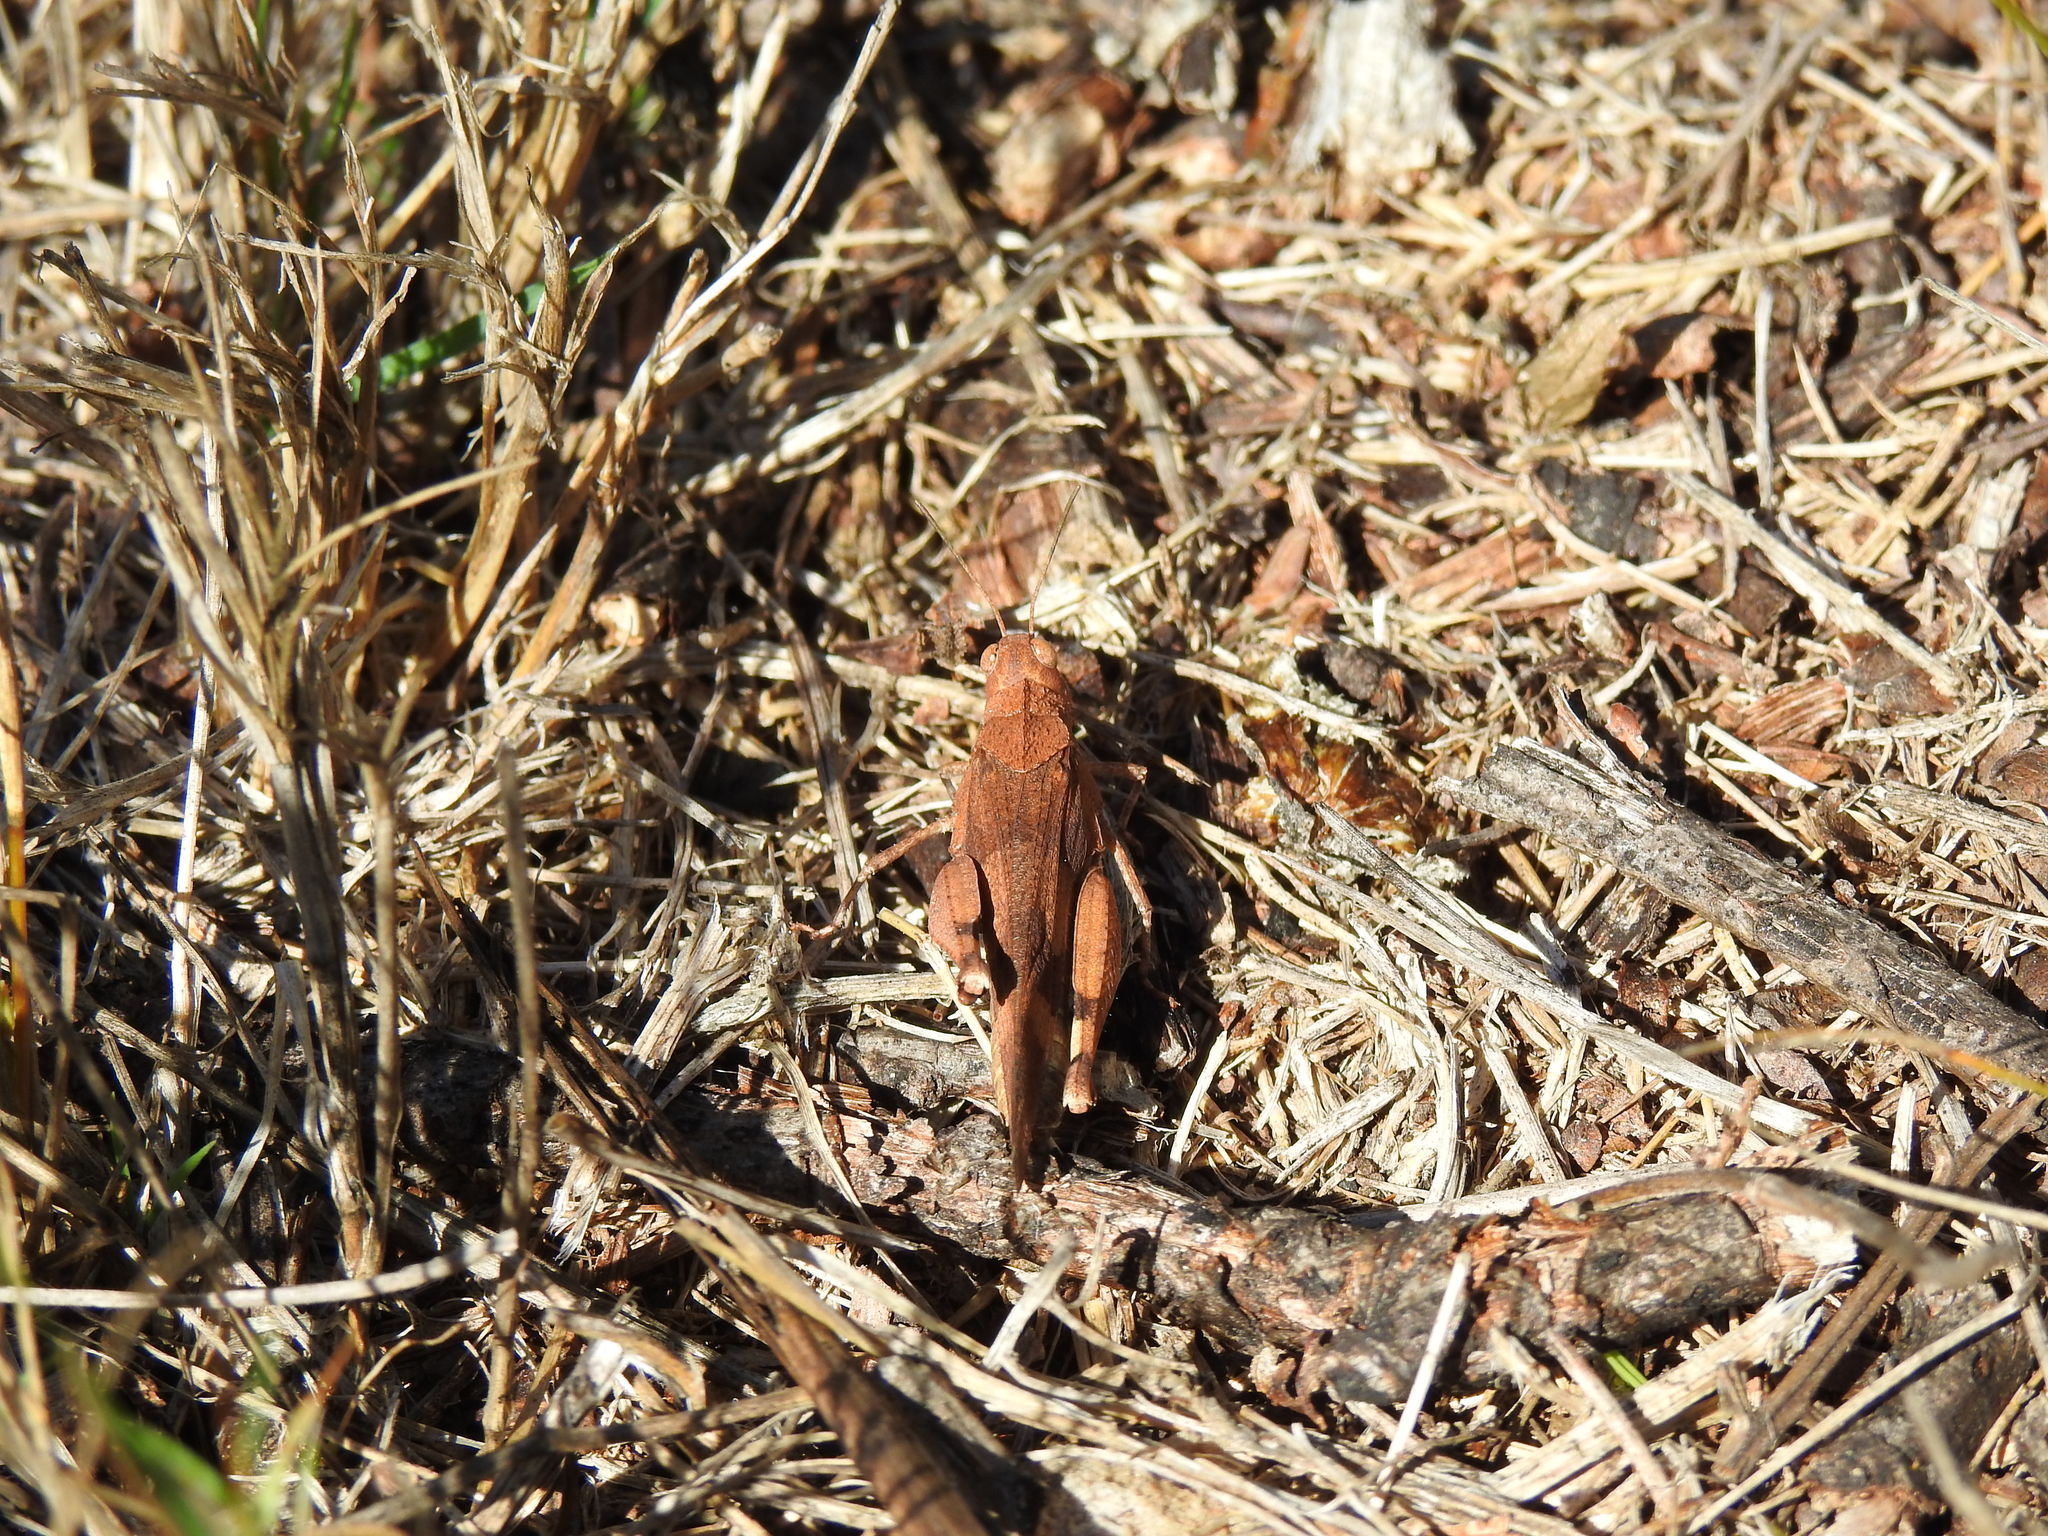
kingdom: Animalia
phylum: Arthropoda
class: Insecta
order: Orthoptera
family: Acrididae
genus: Oedipoda
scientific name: Oedipoda caerulescens
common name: Blue-winged grasshopper
